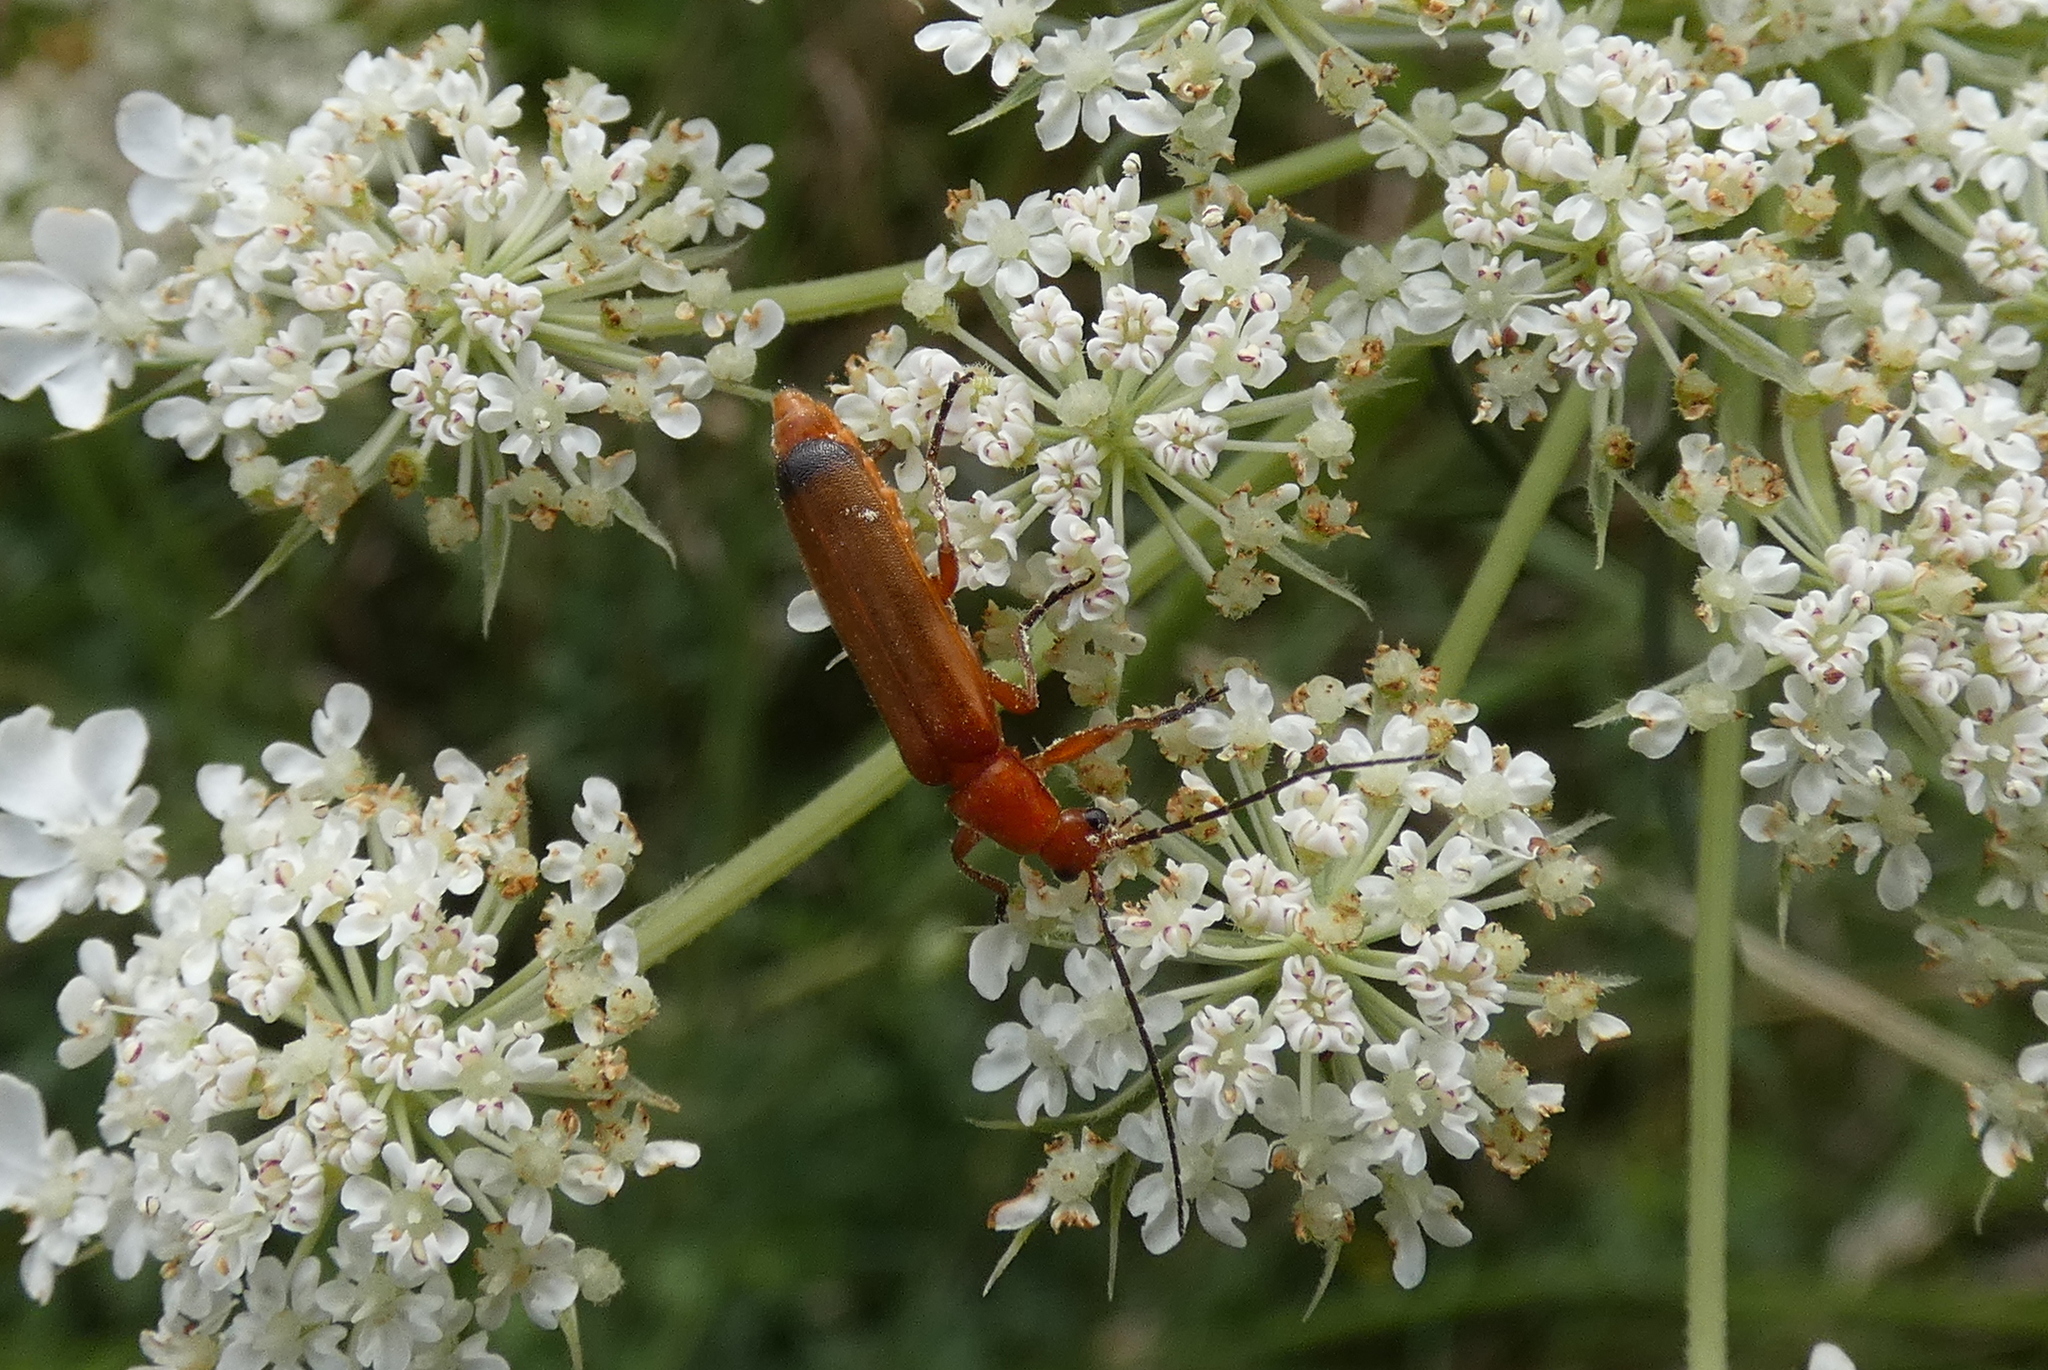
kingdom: Animalia
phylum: Arthropoda
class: Insecta
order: Coleoptera
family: Cantharidae
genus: Rhagonycha
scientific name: Rhagonycha fulva
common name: Common red soldier beetle
